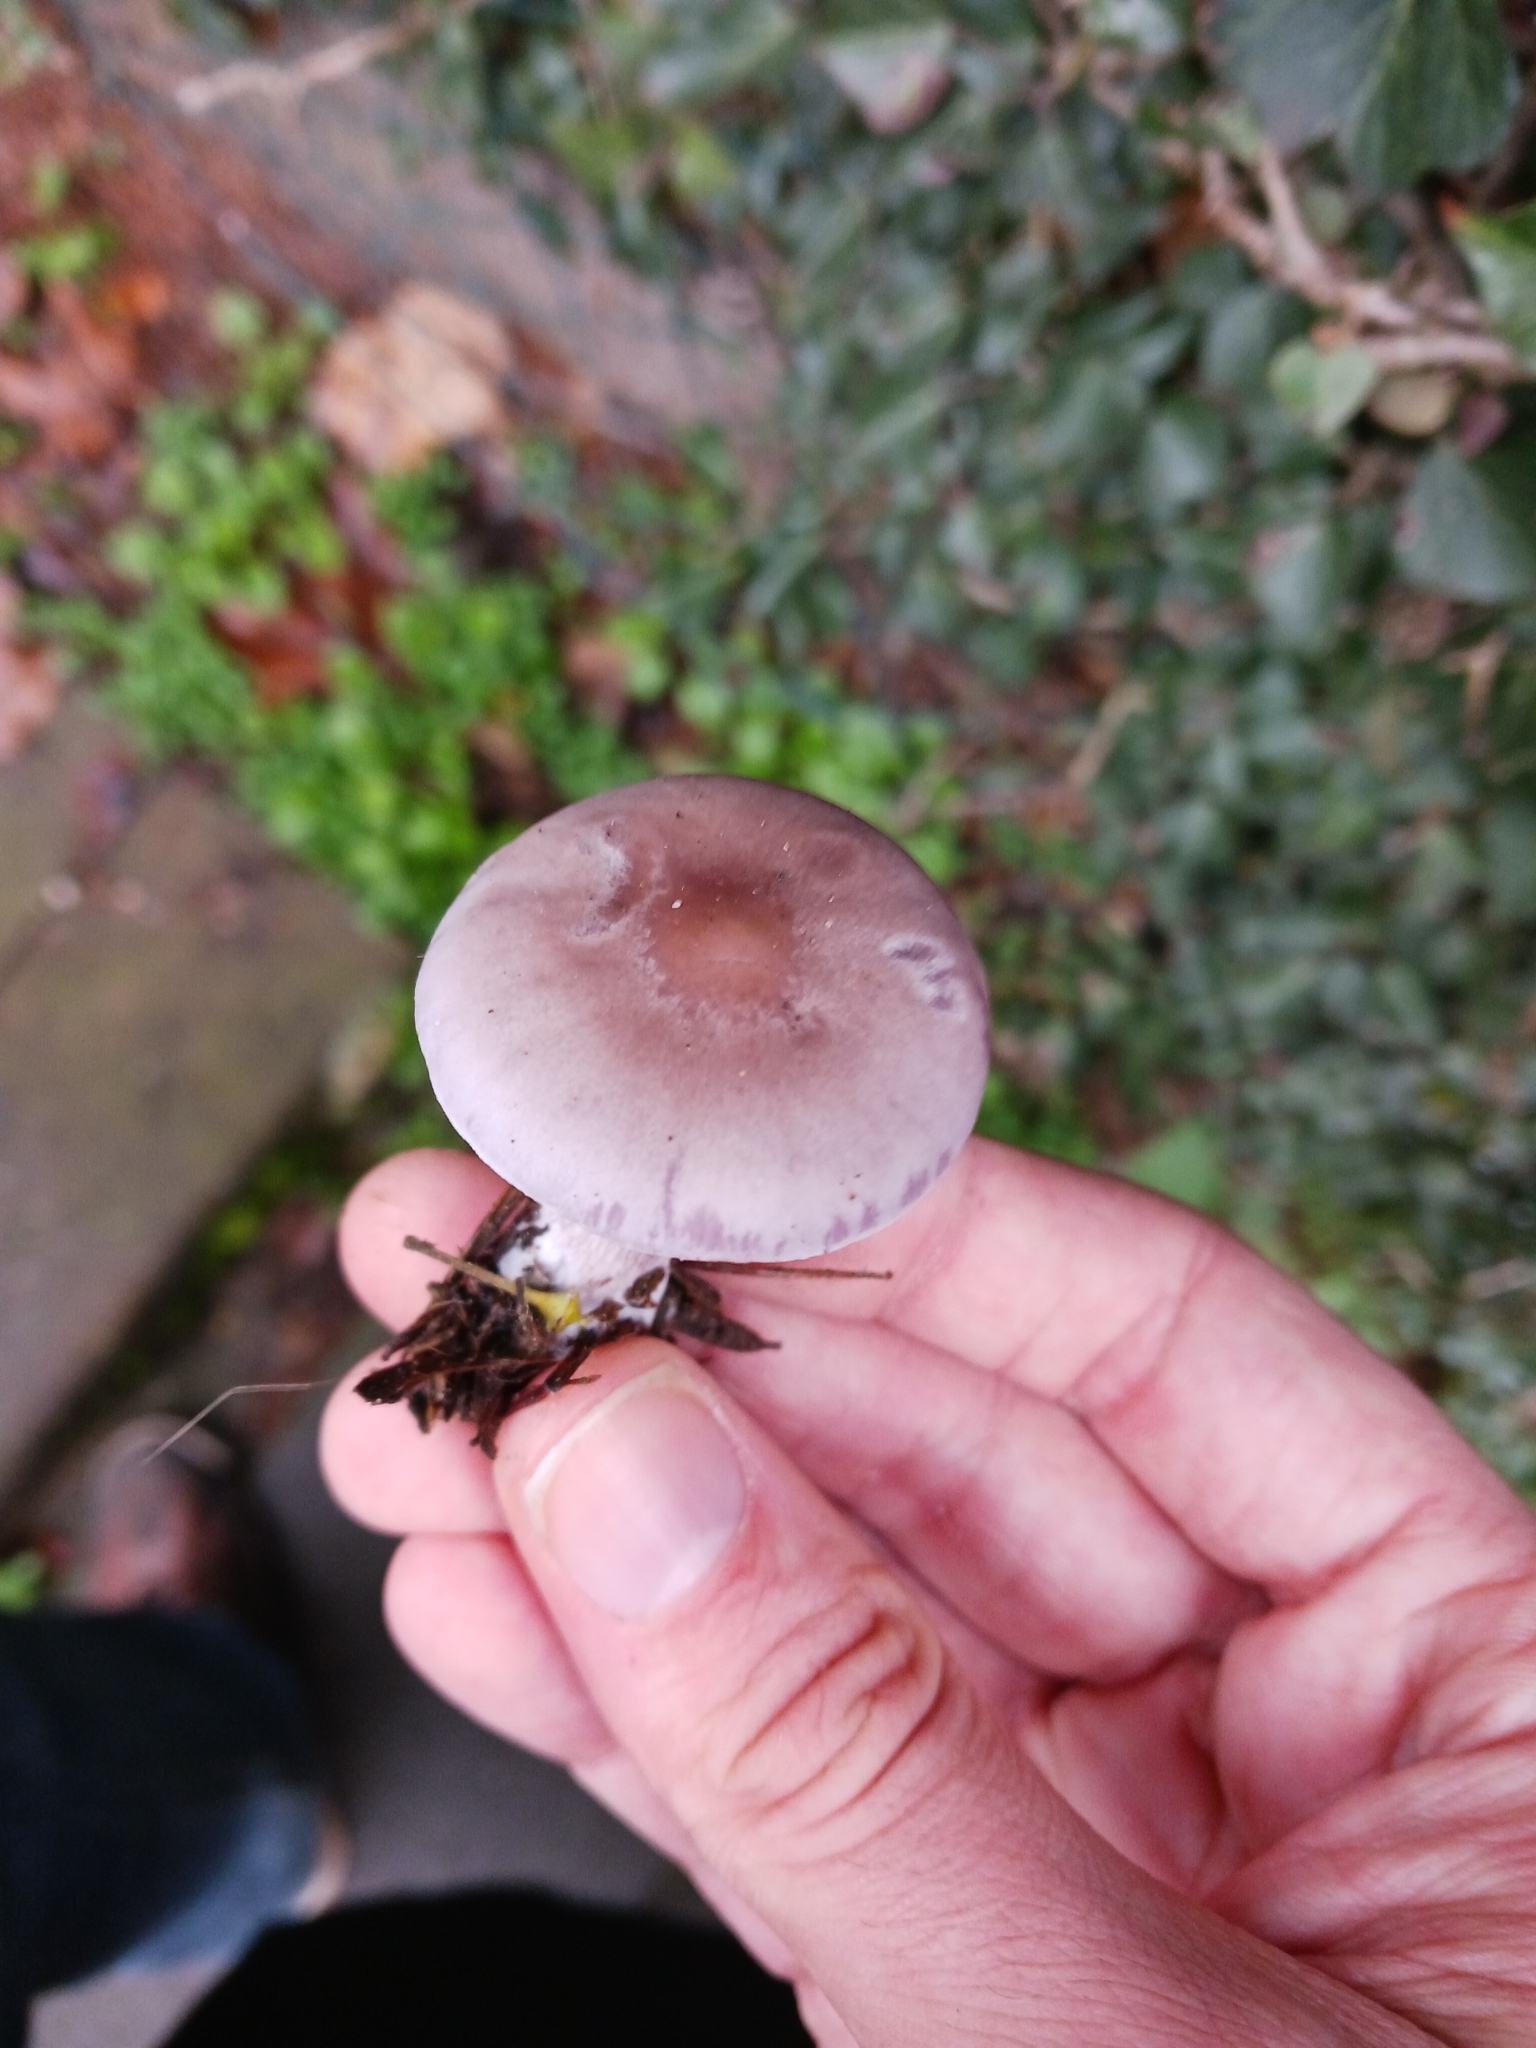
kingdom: Fungi
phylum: Basidiomycota
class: Agaricomycetes
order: Agaricales
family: Tricholomataceae
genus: Collybia
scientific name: Collybia
